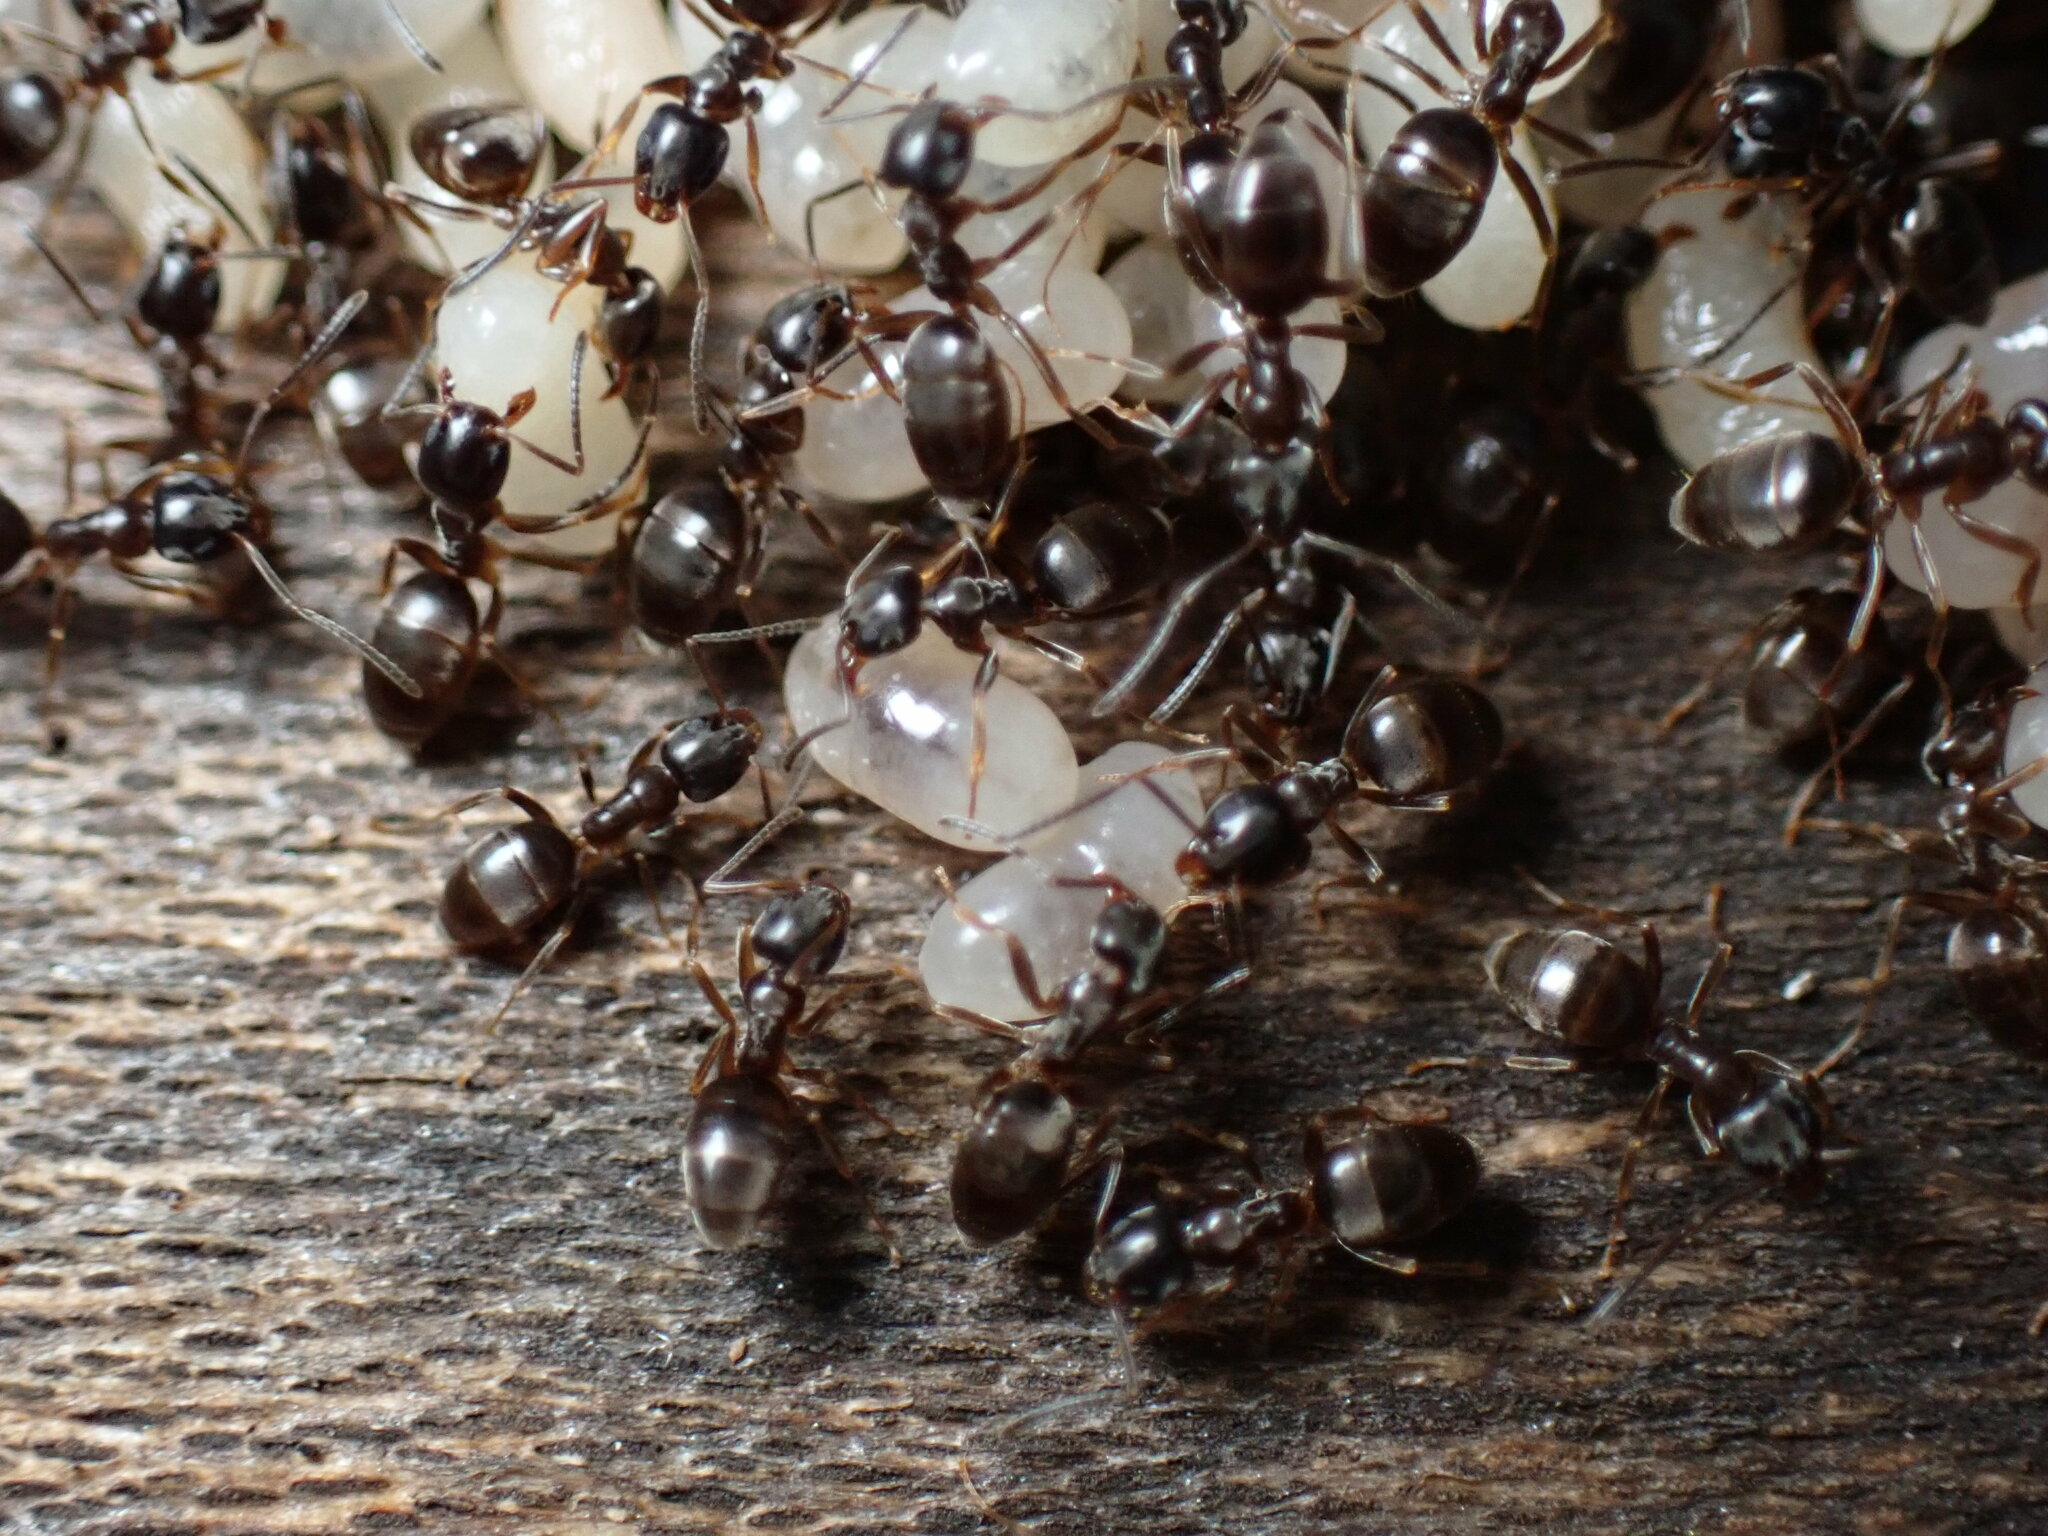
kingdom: Animalia
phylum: Arthropoda
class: Insecta
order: Hymenoptera
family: Formicidae
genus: Tapinoma
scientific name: Tapinoma sessile
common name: Odorous house ant
